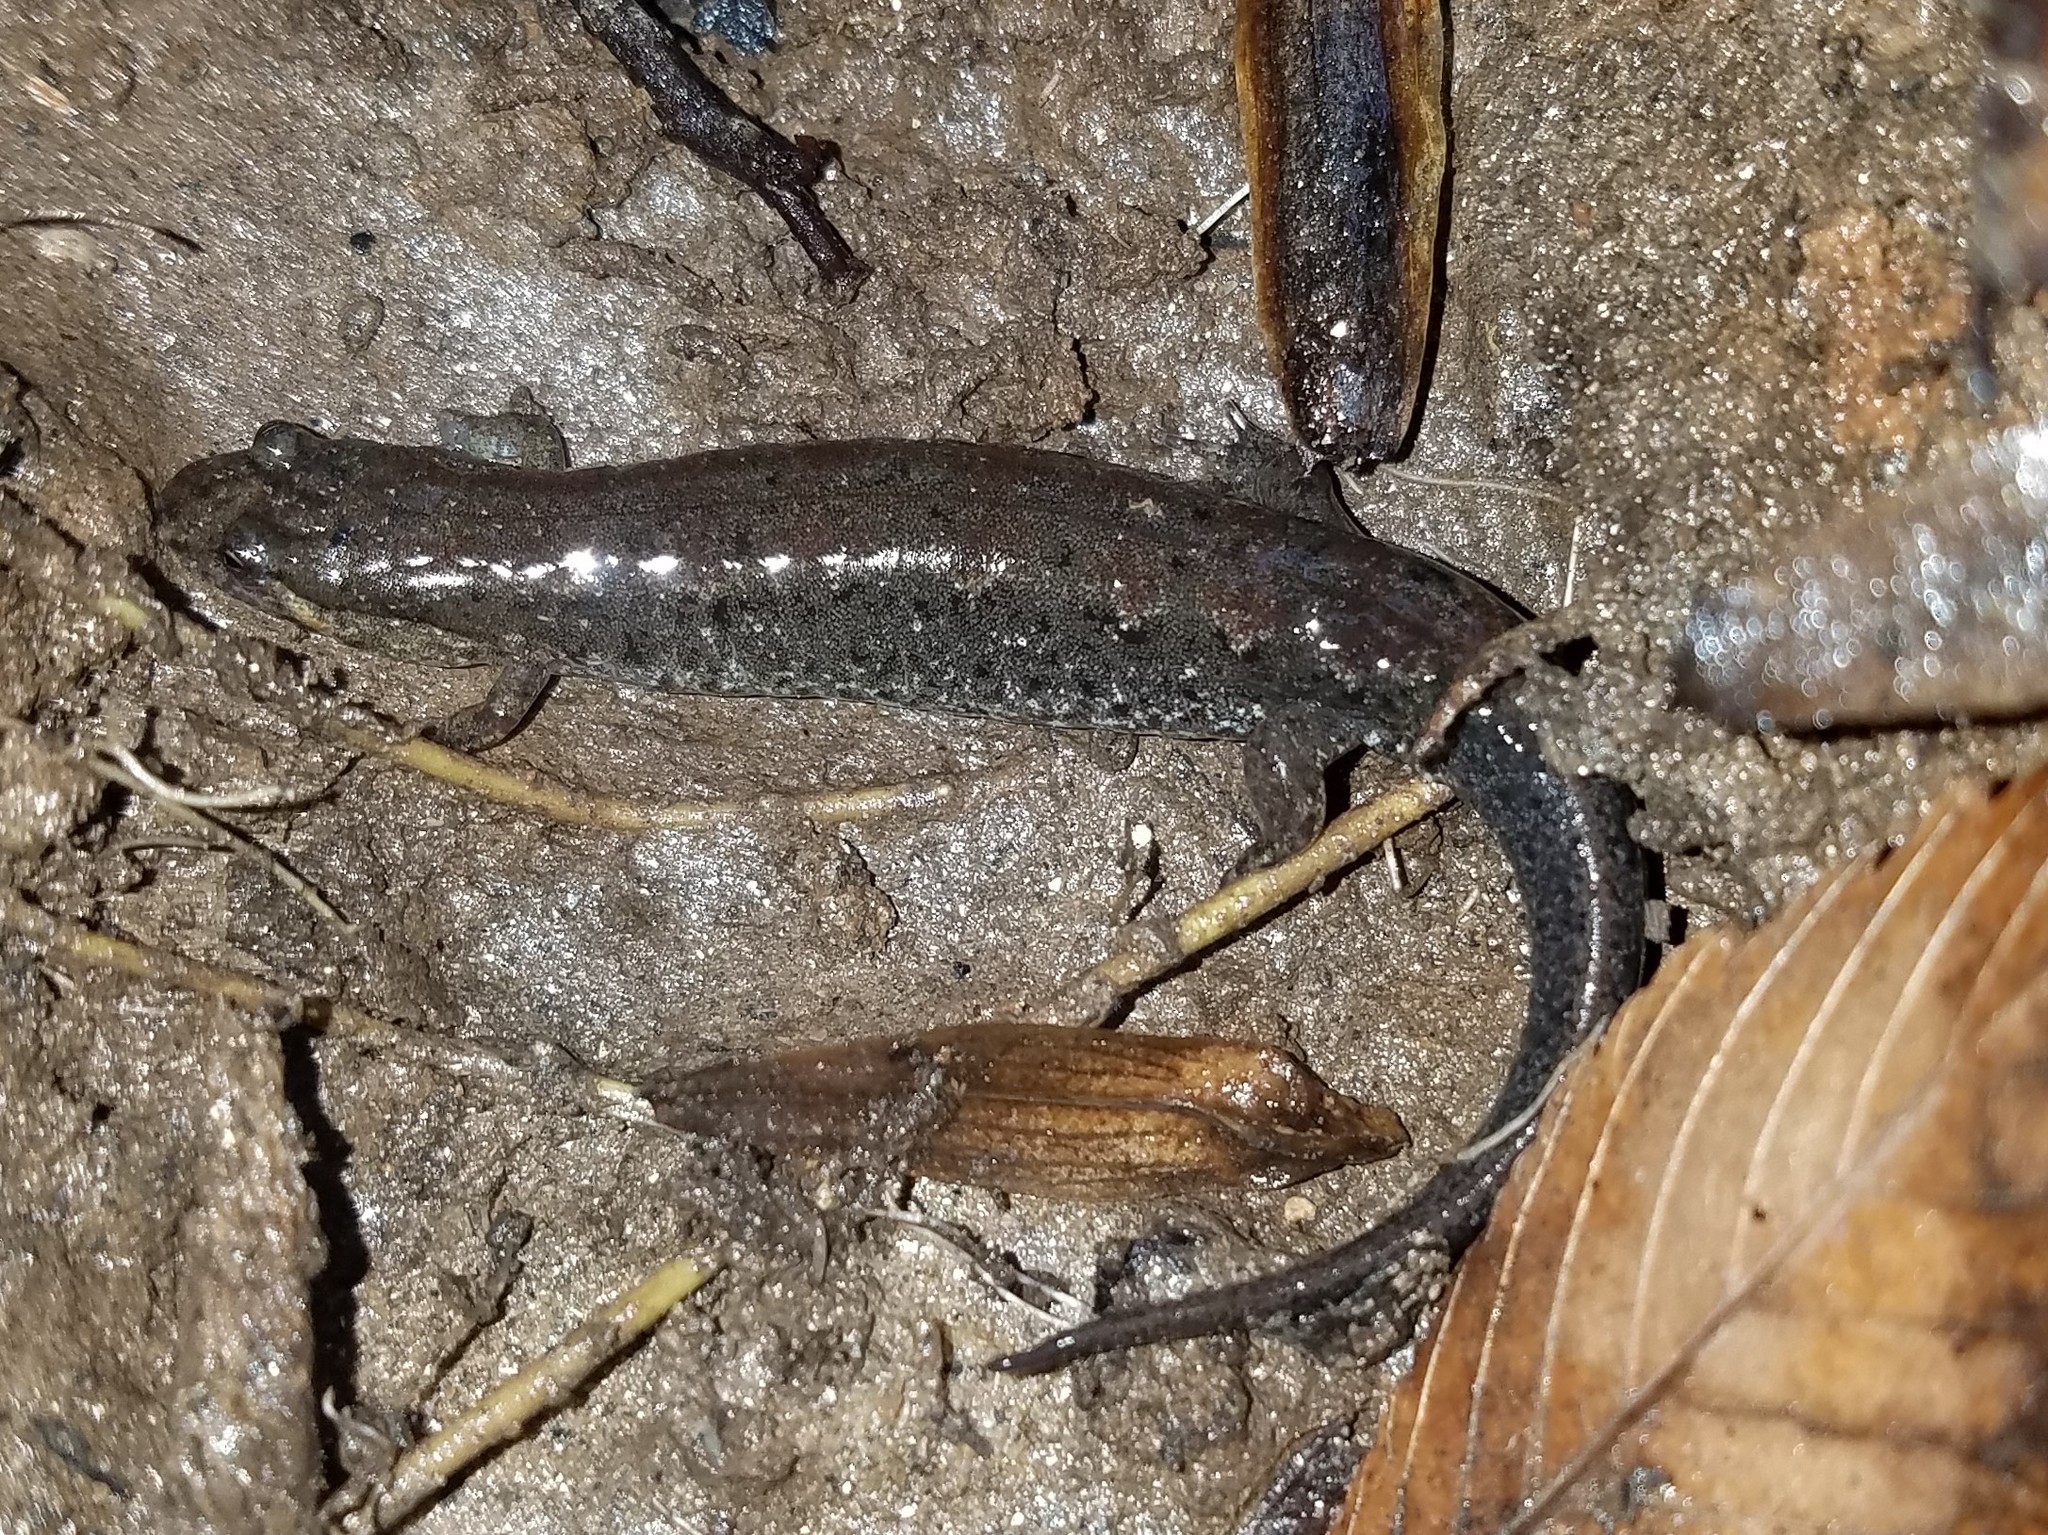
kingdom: Animalia
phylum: Chordata
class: Amphibia
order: Caudata
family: Plethodontidae
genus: Desmognathus
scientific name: Desmognathus
